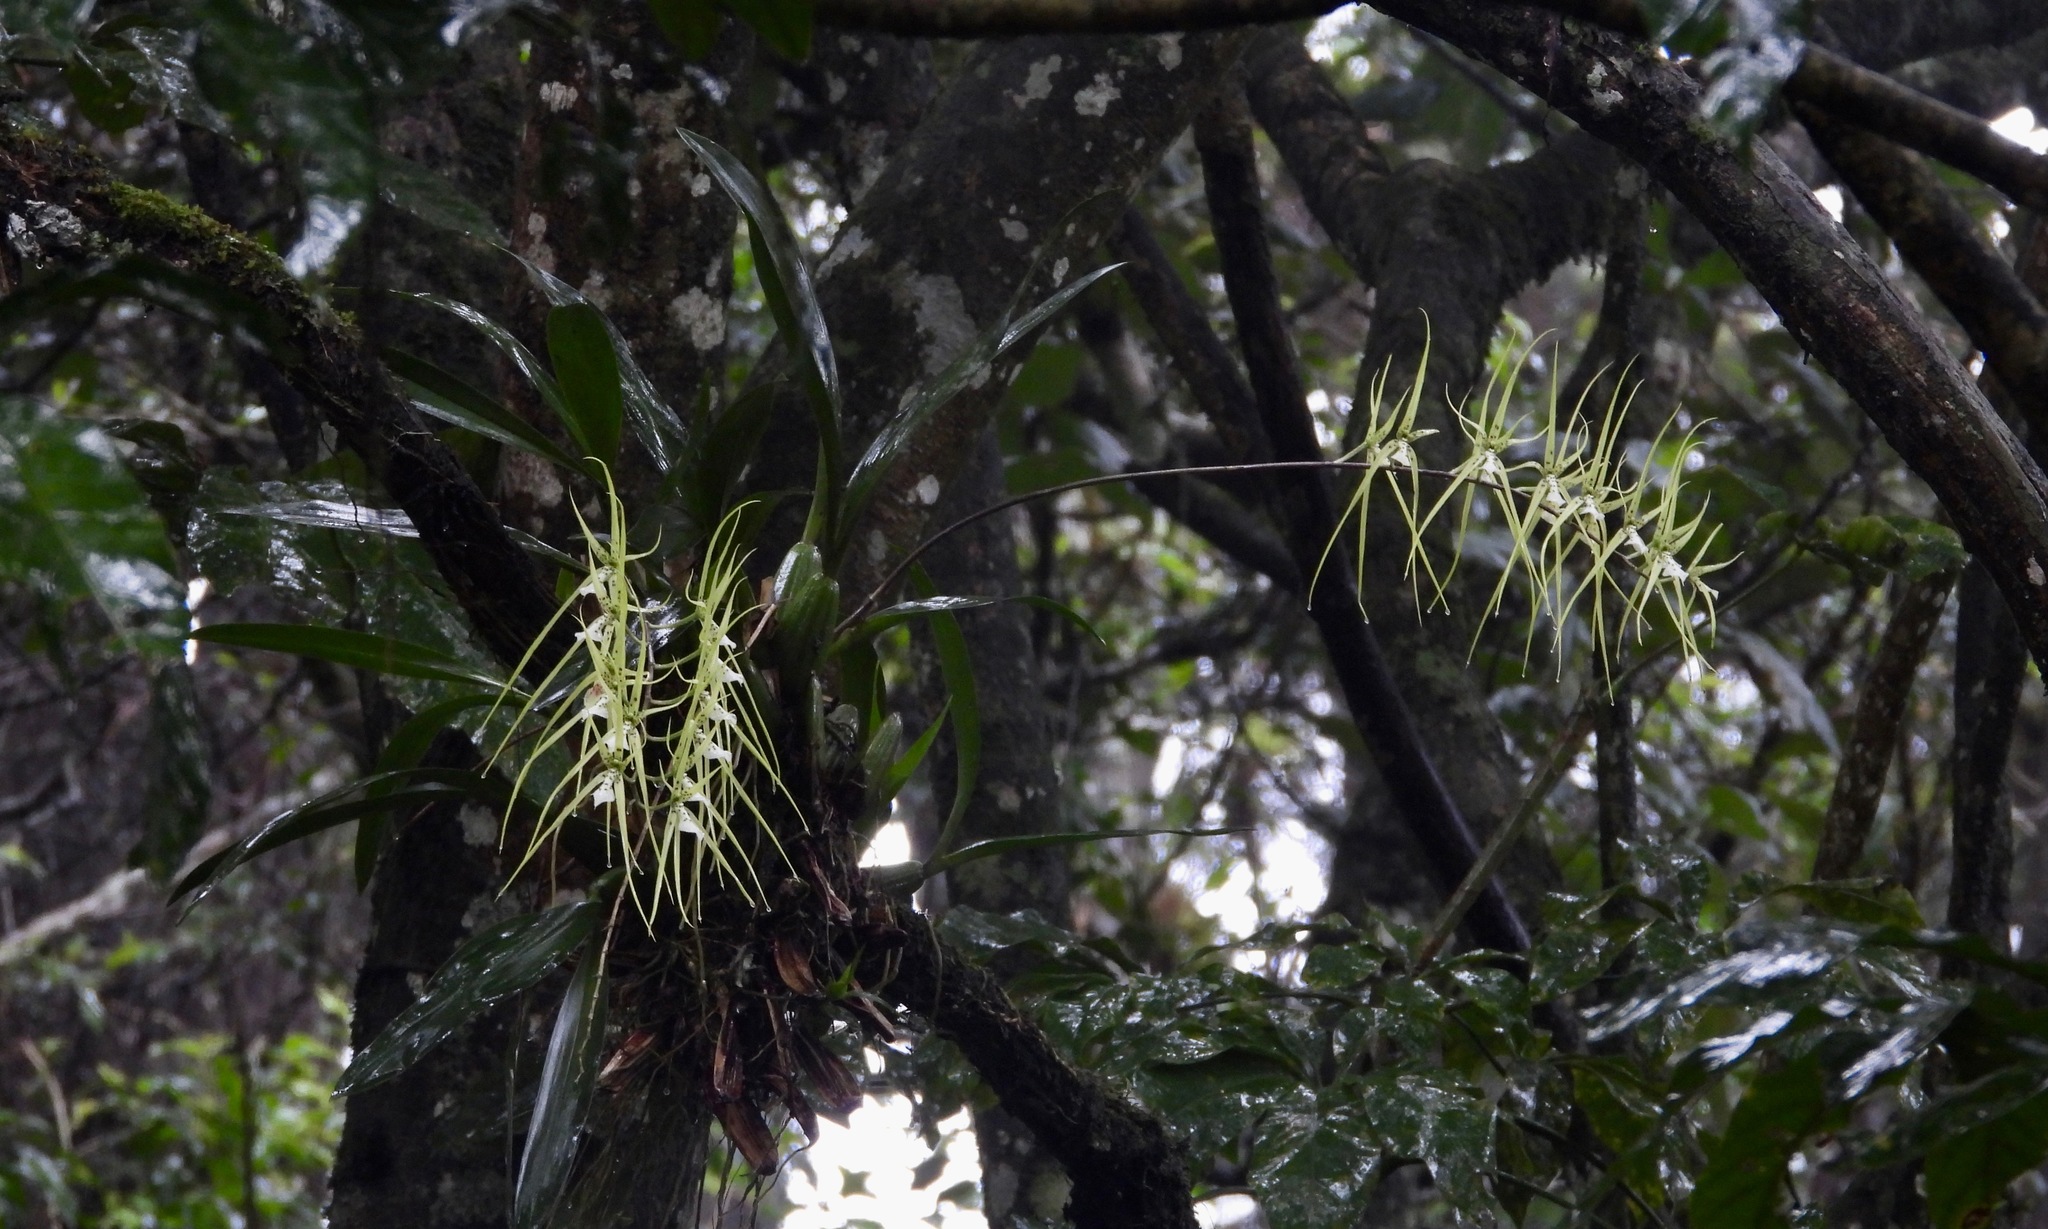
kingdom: Plantae
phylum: Tracheophyta
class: Liliopsida
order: Asparagales
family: Orchidaceae
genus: Brassia
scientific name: Brassia verrucosa
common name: Warty brassia
